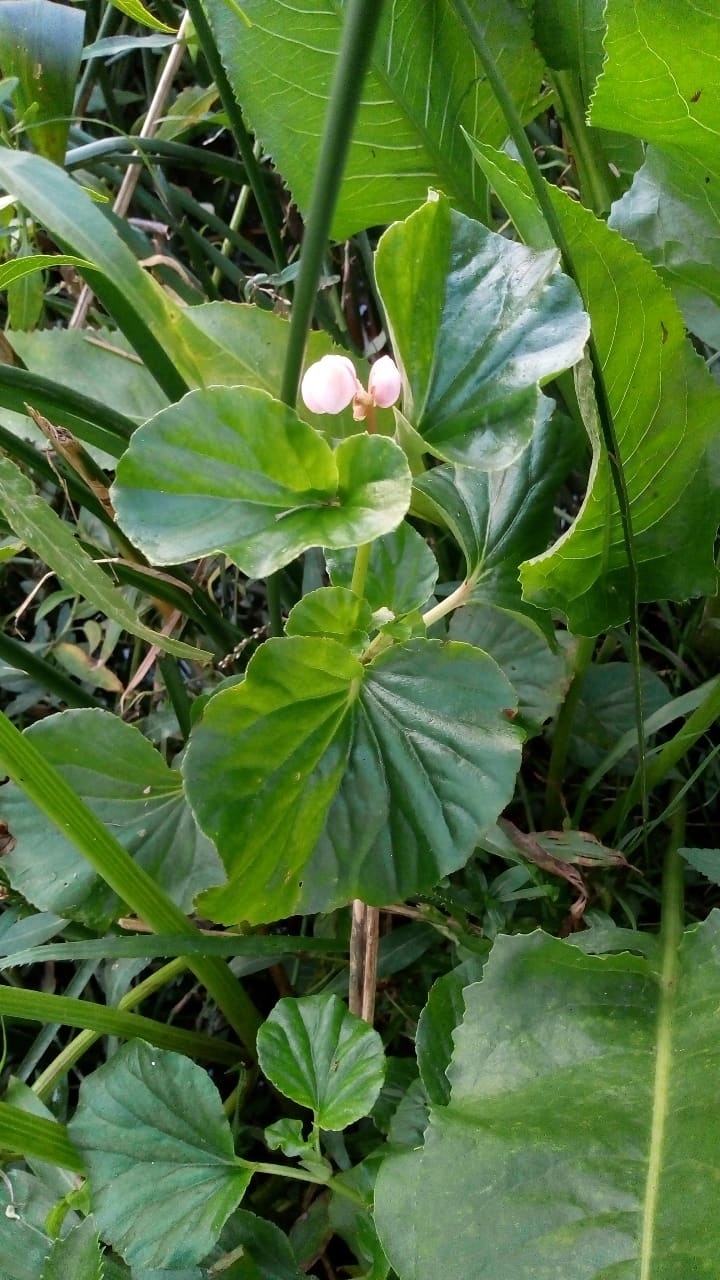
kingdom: Plantae
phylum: Tracheophyta
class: Magnoliopsida
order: Cucurbitales
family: Begoniaceae
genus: Begonia
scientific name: Begonia cucullata
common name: Clubbed begonia
